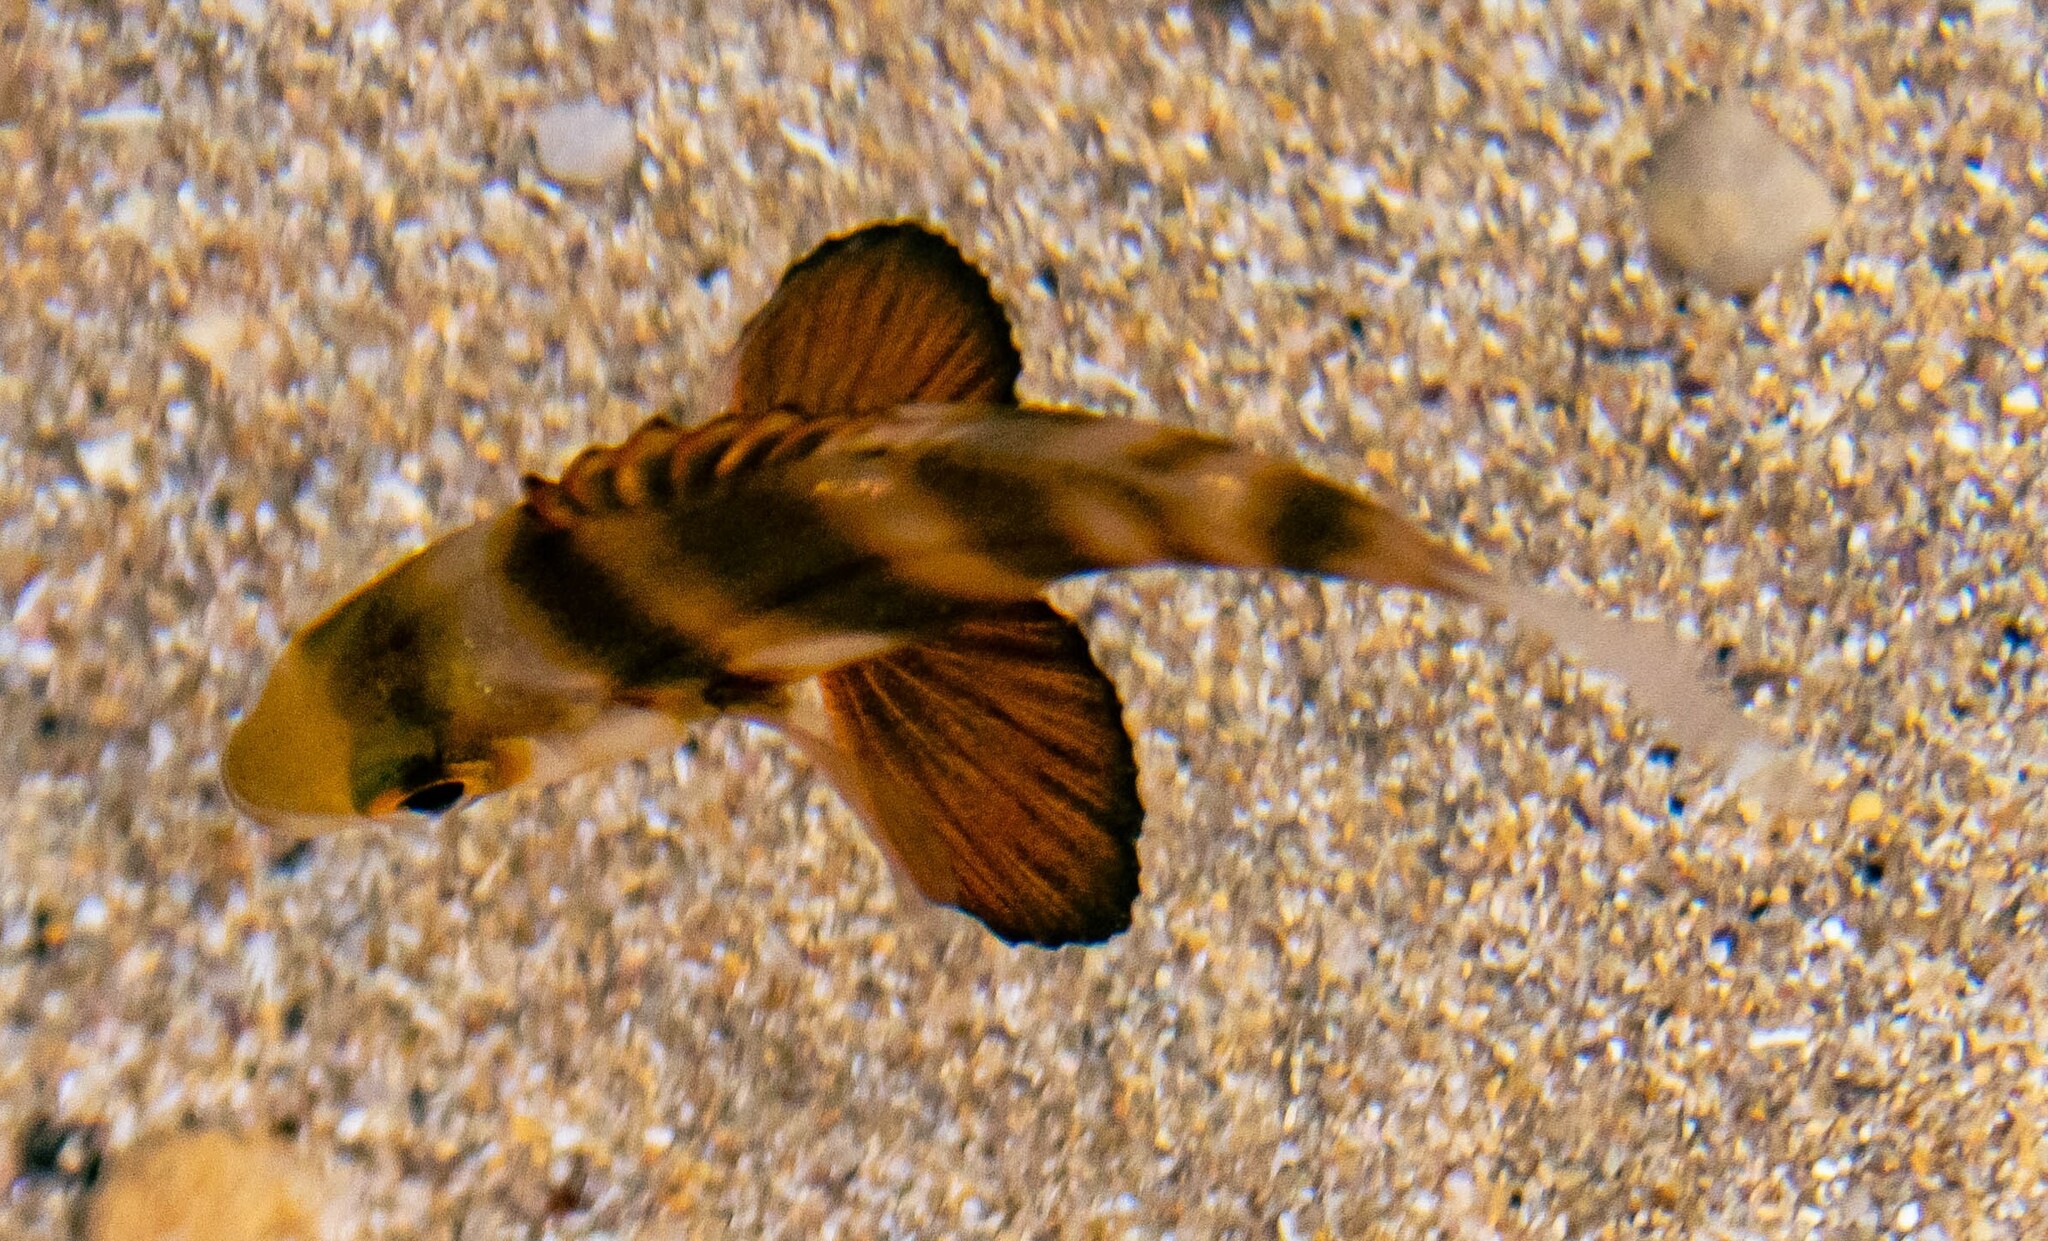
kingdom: Animalia
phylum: Chordata
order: Perciformes
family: Sparidae
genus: Diplodus
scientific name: Diplodus cervinus
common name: Oman porgy
